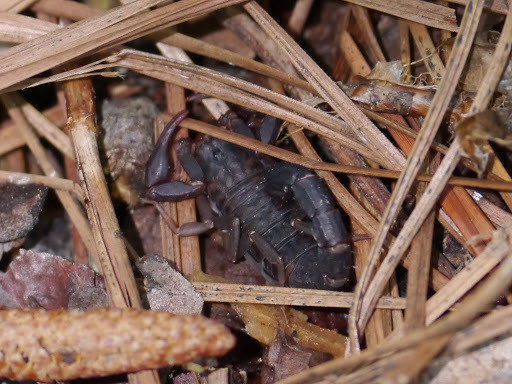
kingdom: Animalia
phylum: Arthropoda
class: Arachnida
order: Scorpiones
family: Vaejovidae
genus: Vaejovis
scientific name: Vaejovis carolinianus
